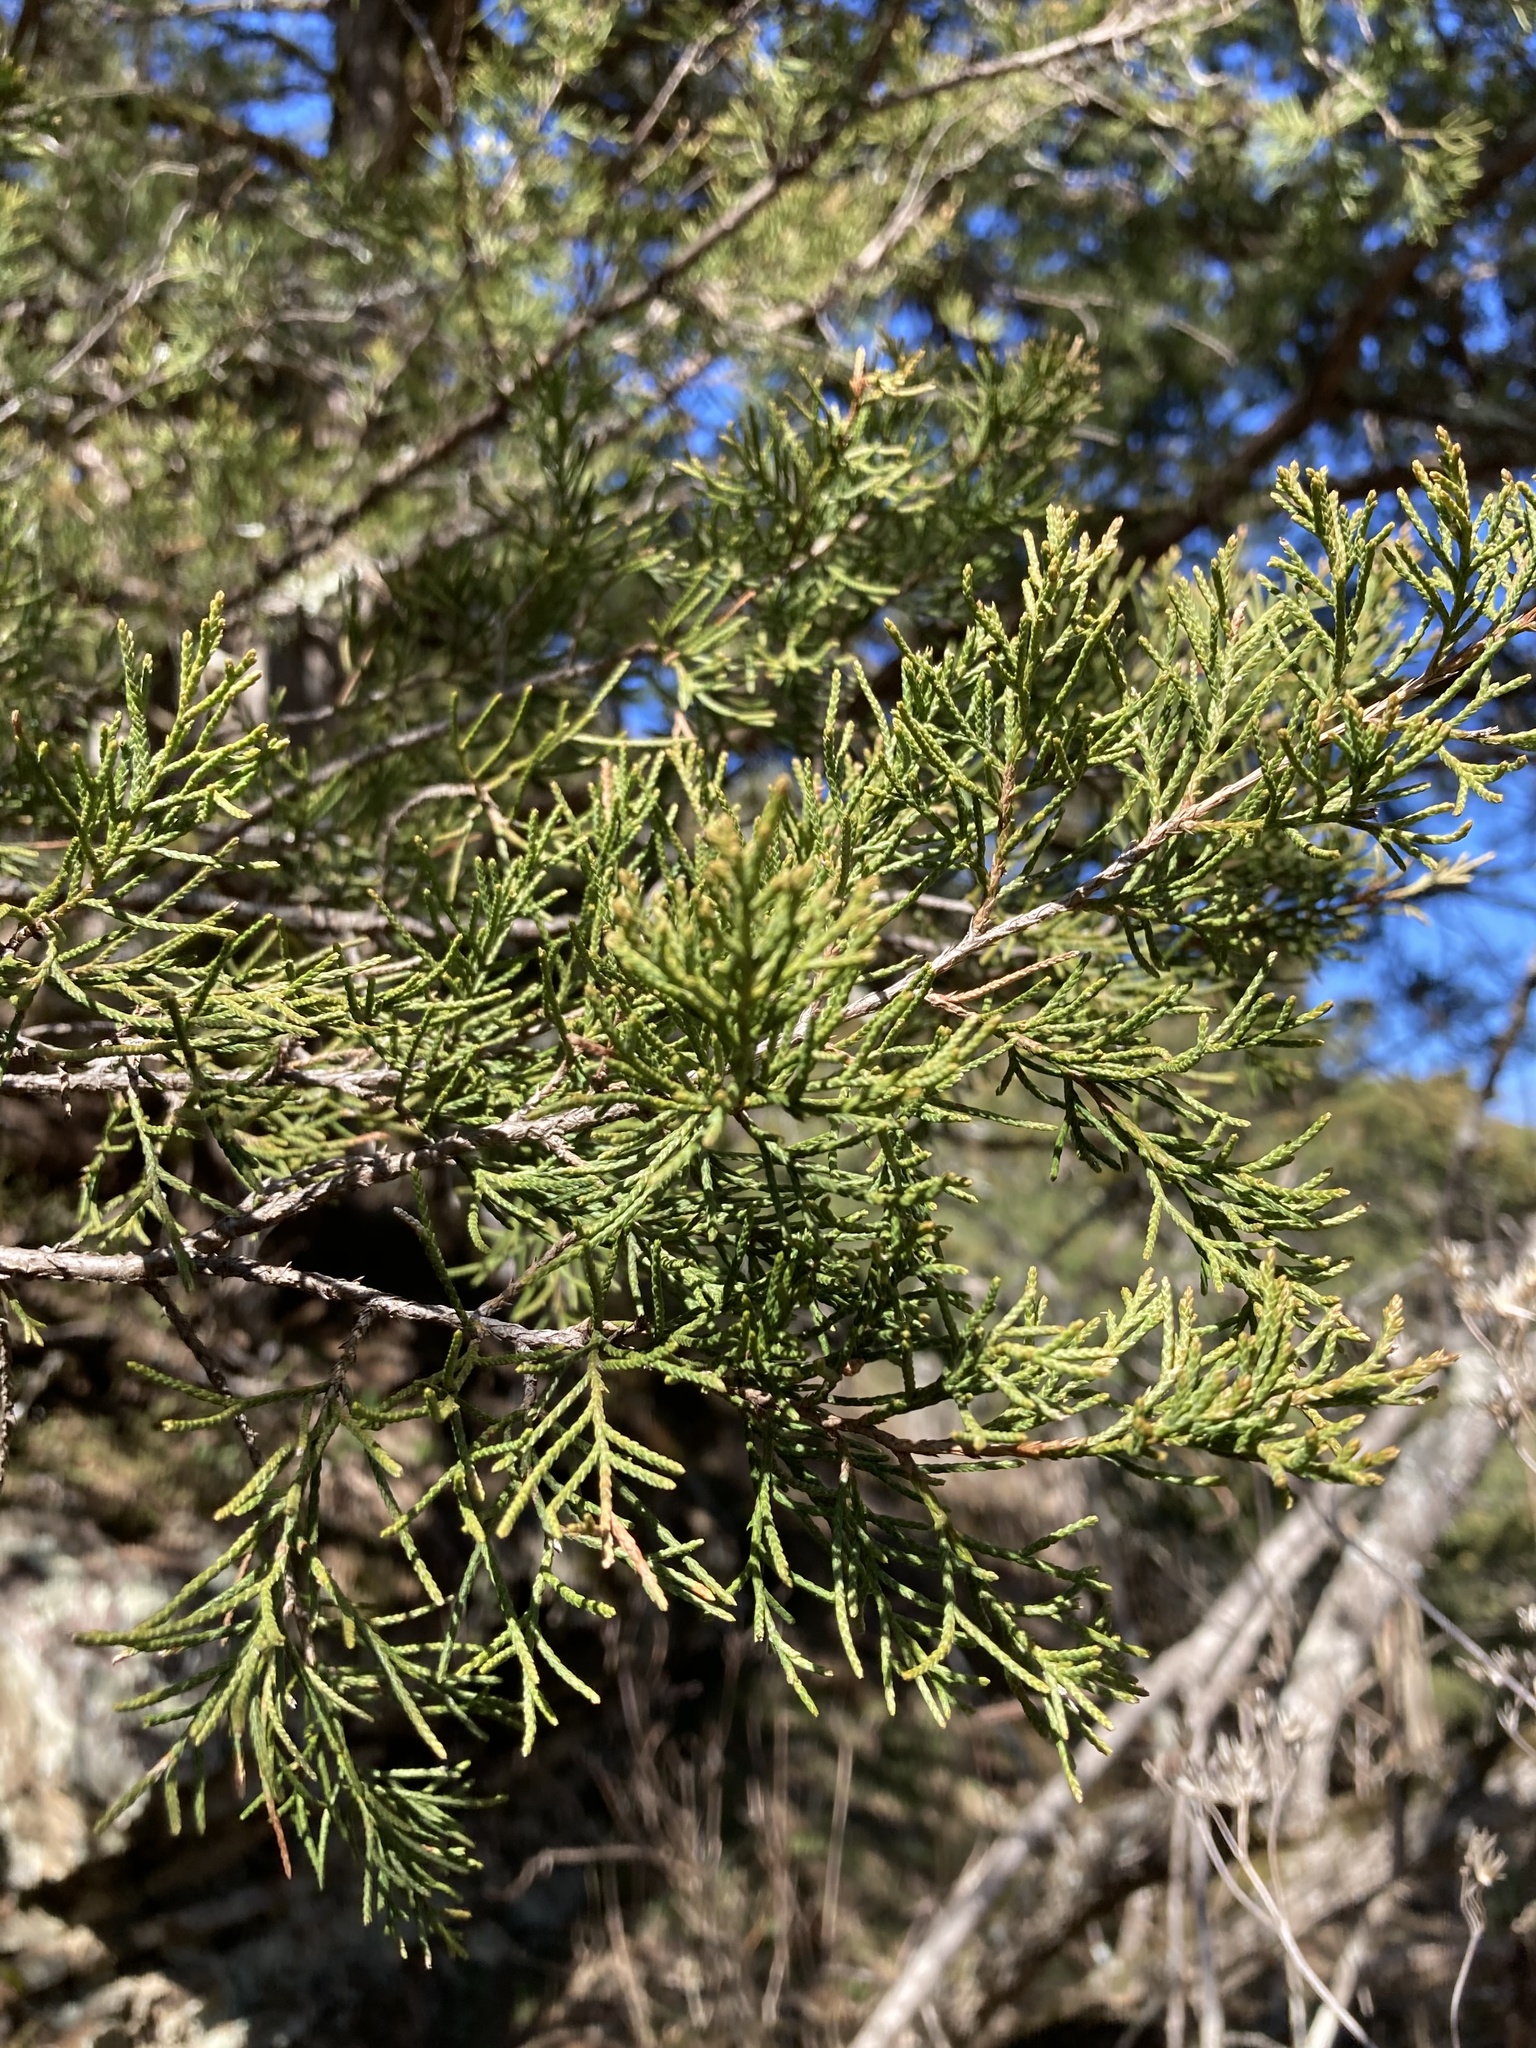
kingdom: Plantae
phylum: Tracheophyta
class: Pinopsida
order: Pinales
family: Cupressaceae
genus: Juniperus
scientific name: Juniperus virginiana
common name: Red juniper
